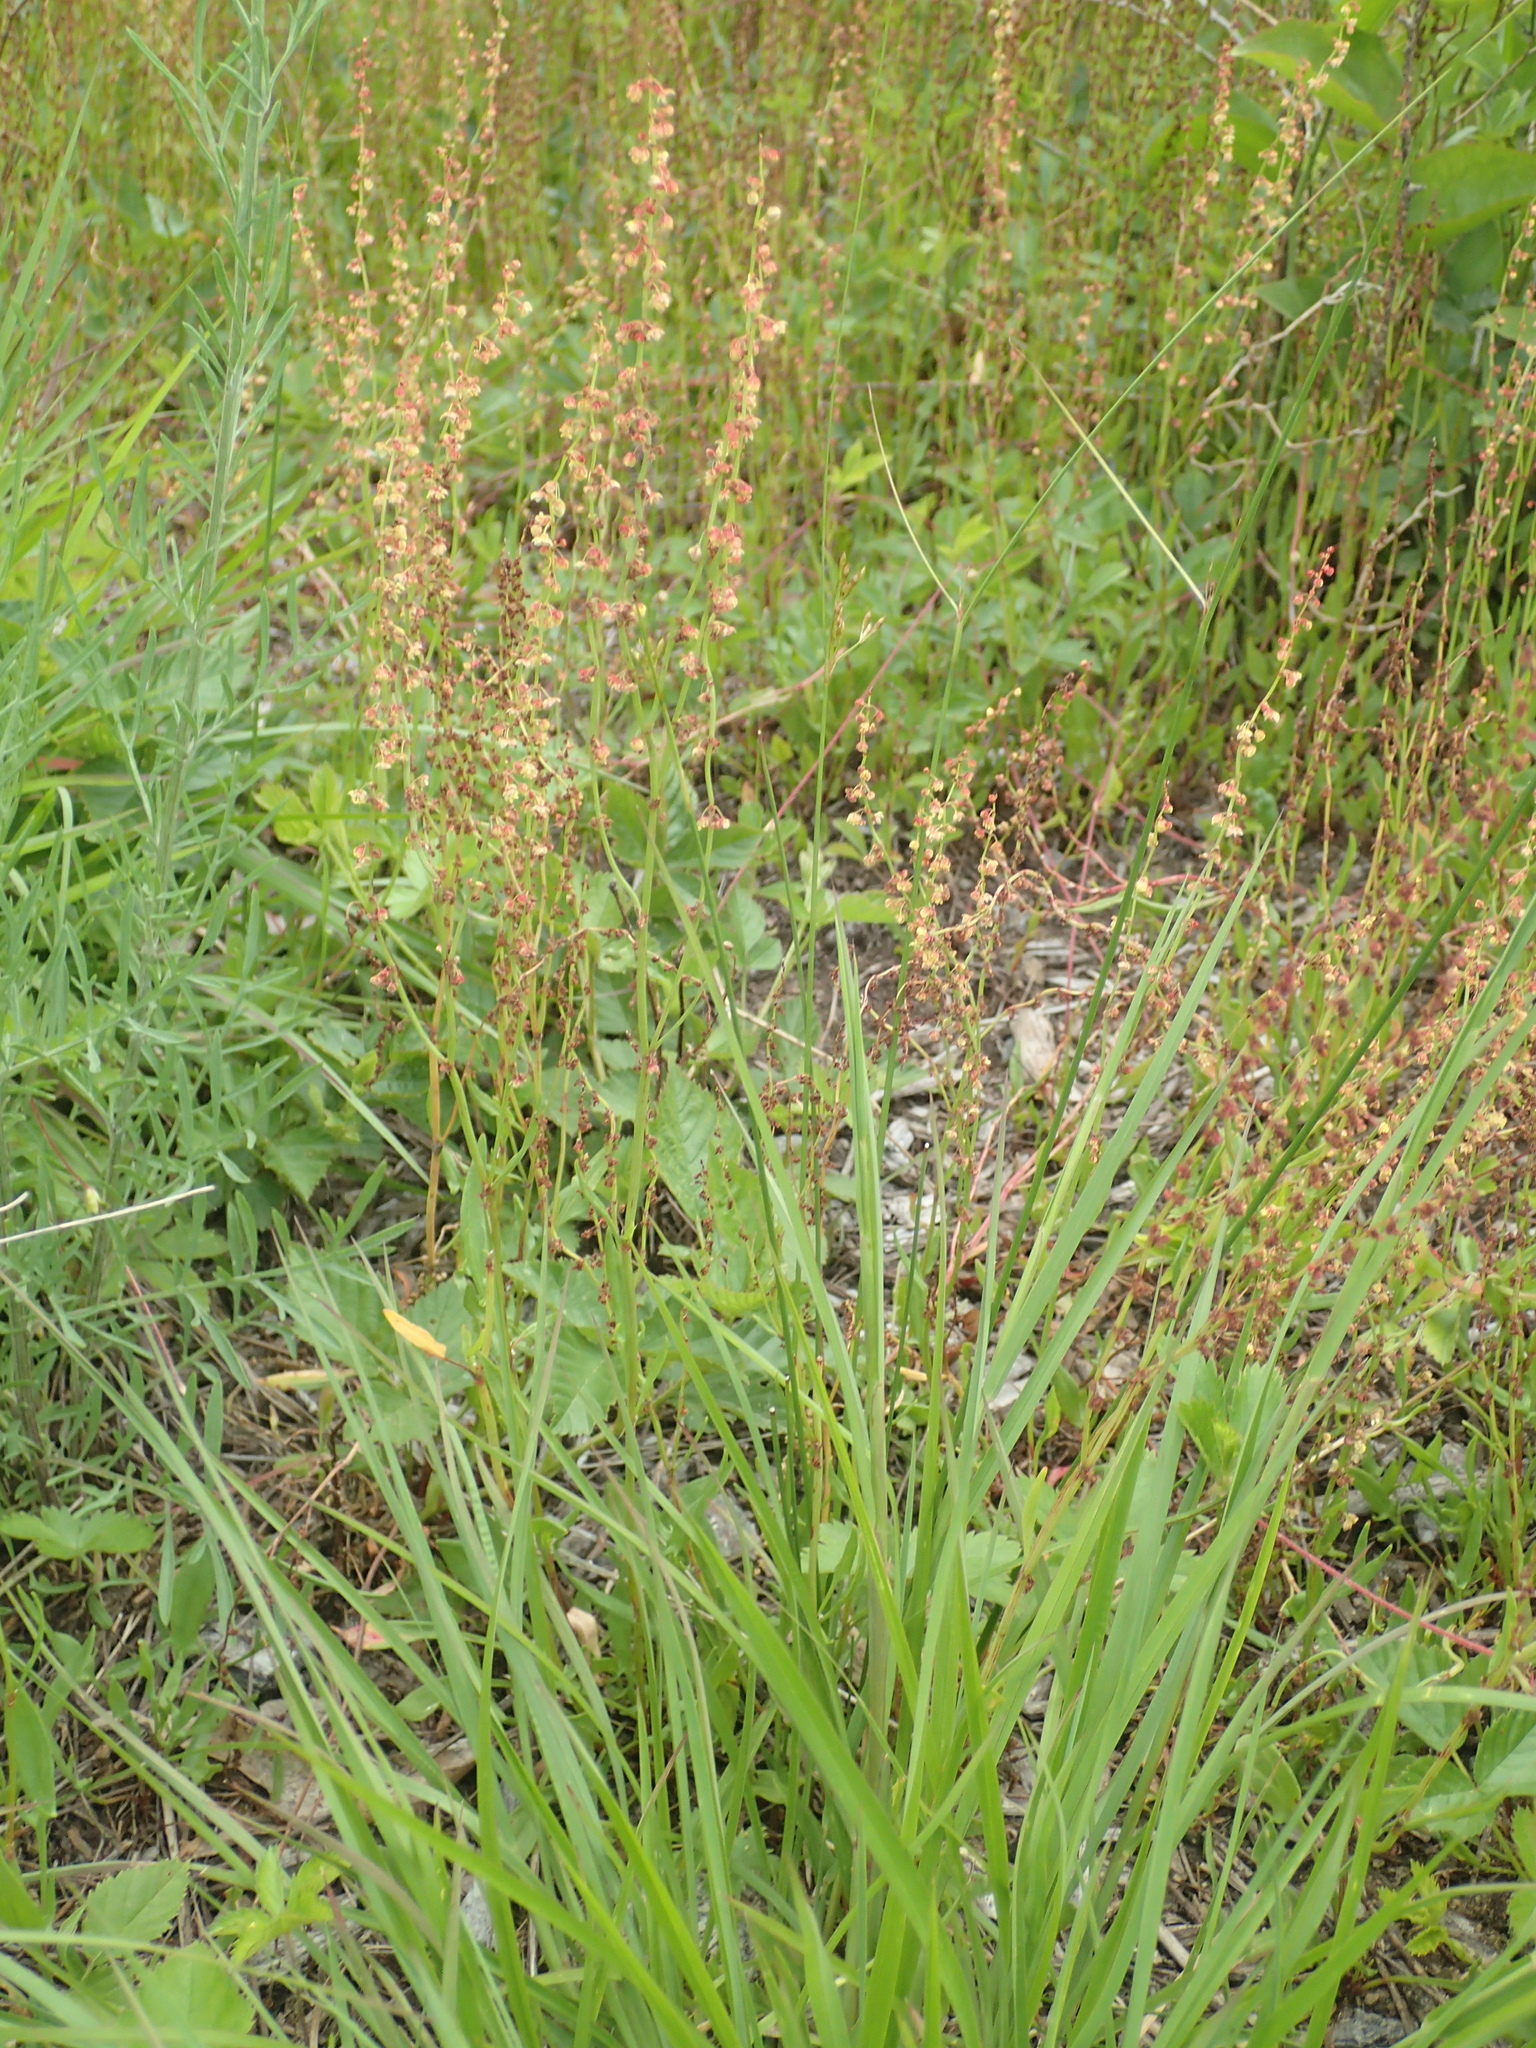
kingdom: Plantae
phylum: Tracheophyta
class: Magnoliopsida
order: Caryophyllales
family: Polygonaceae
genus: Rumex
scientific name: Rumex acetosella
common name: Common sheep sorrel
